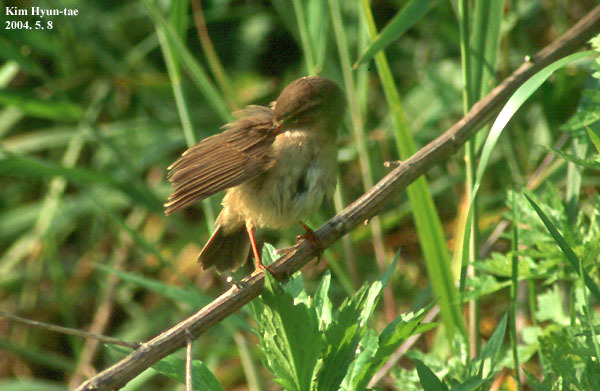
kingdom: Animalia
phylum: Chordata
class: Aves
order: Passeriformes
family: Phylloscopidae
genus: Phylloscopus
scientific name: Phylloscopus fuscatus
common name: Dusky warbler
